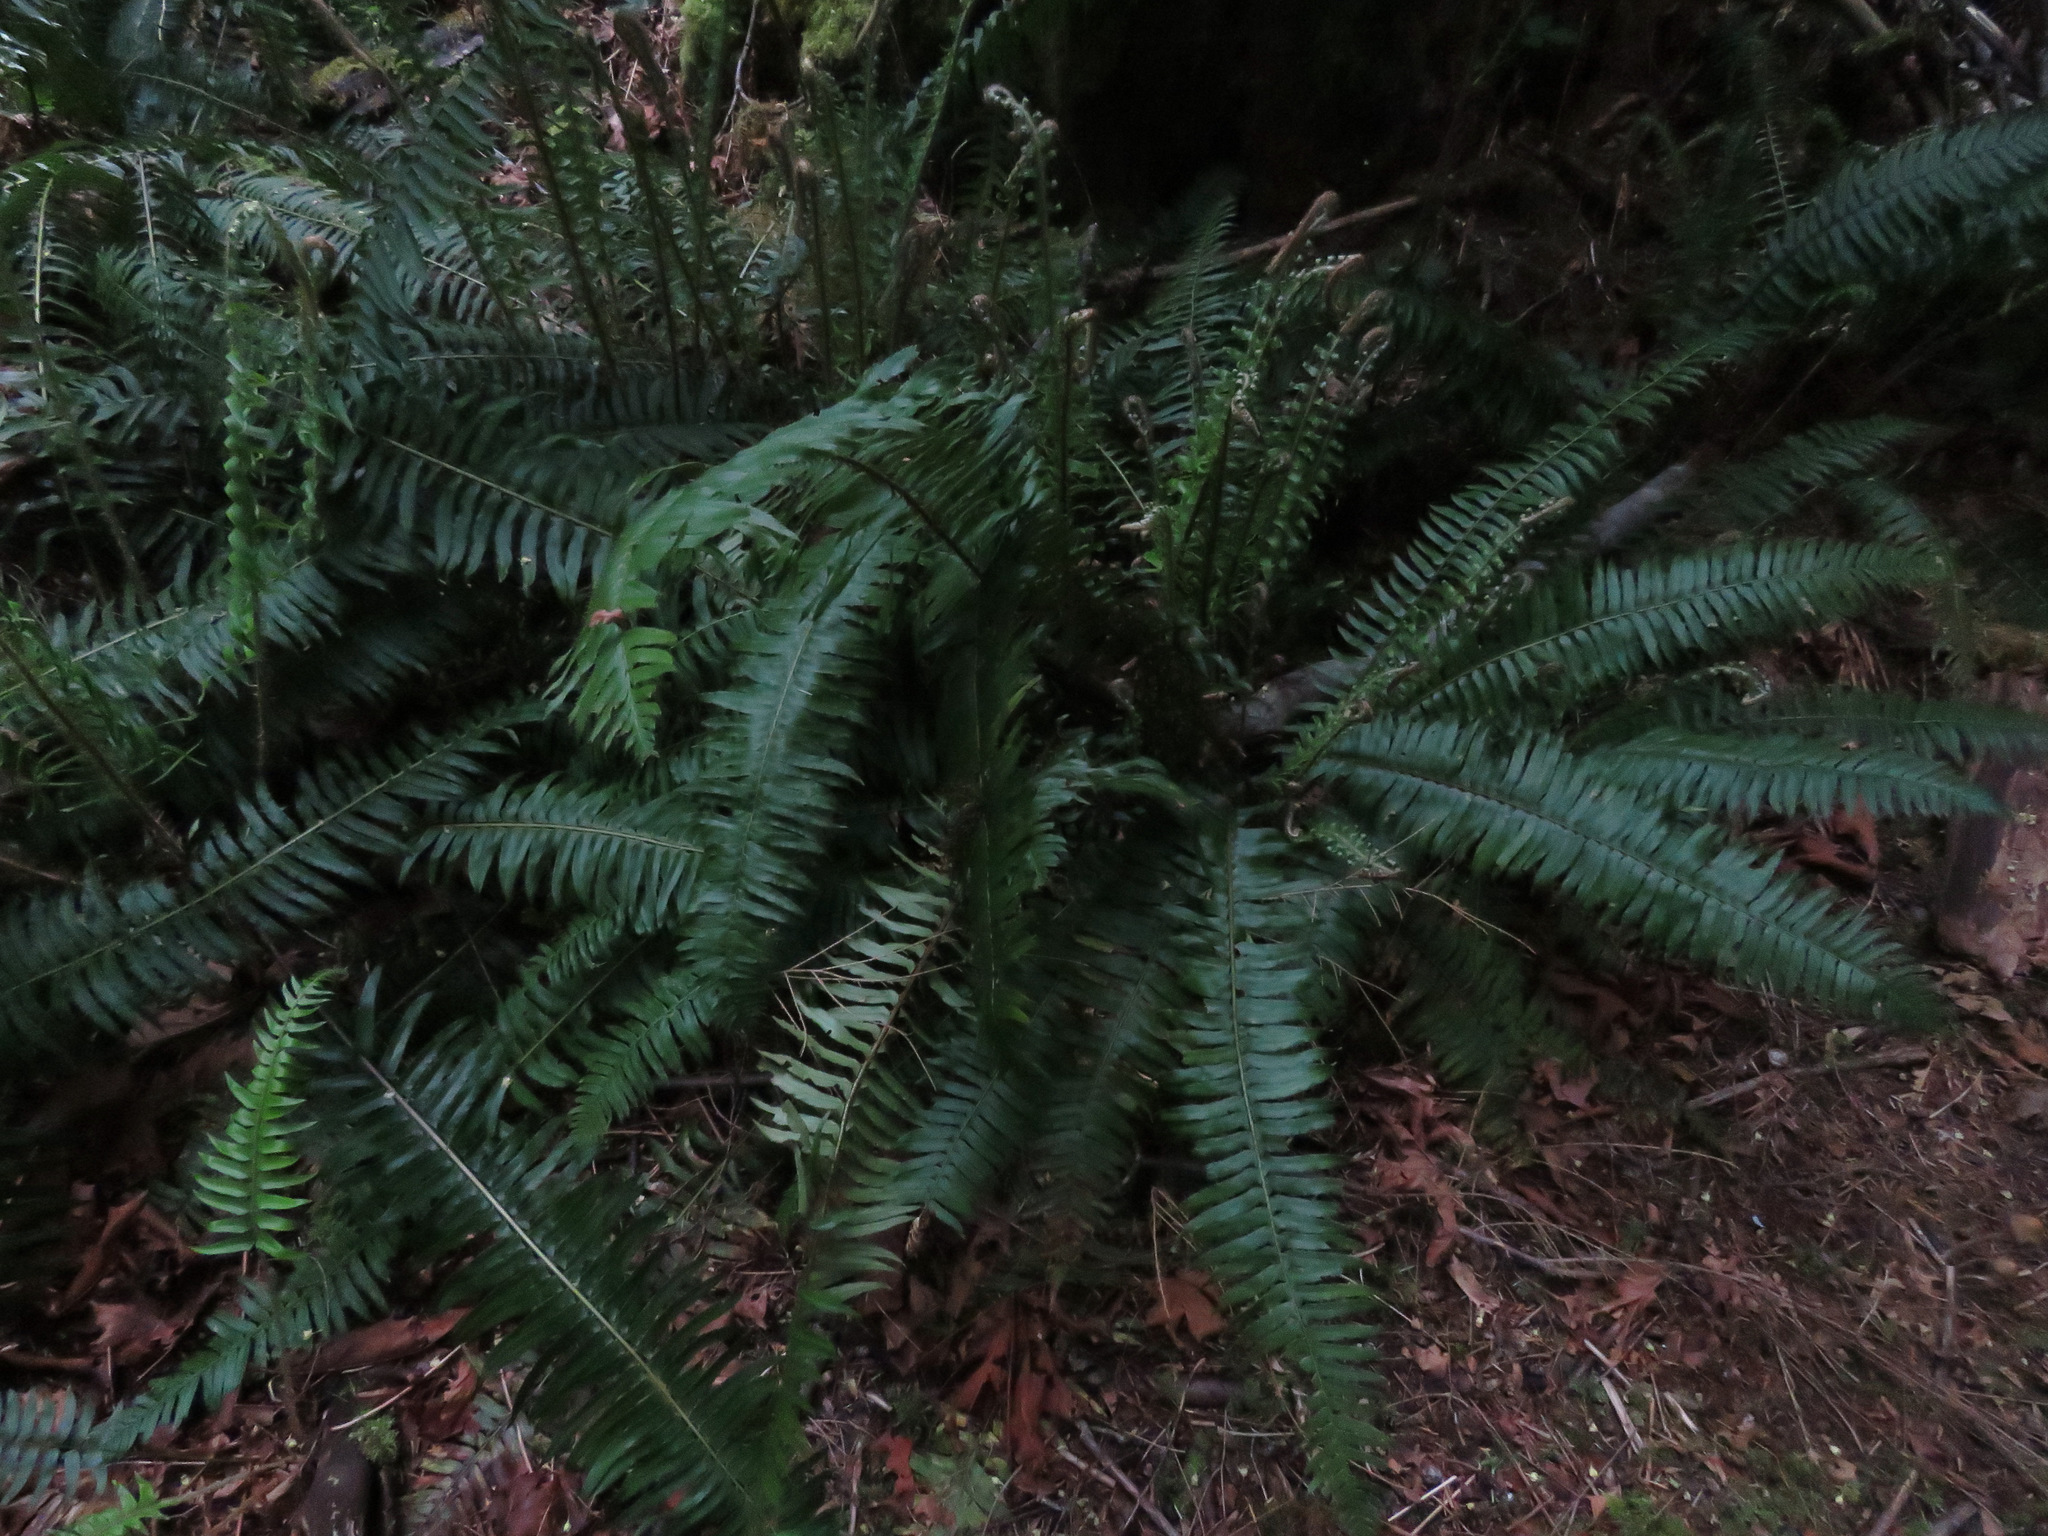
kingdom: Plantae
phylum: Tracheophyta
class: Polypodiopsida
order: Polypodiales
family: Dryopteridaceae
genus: Polystichum
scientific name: Polystichum munitum
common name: Western sword-fern
